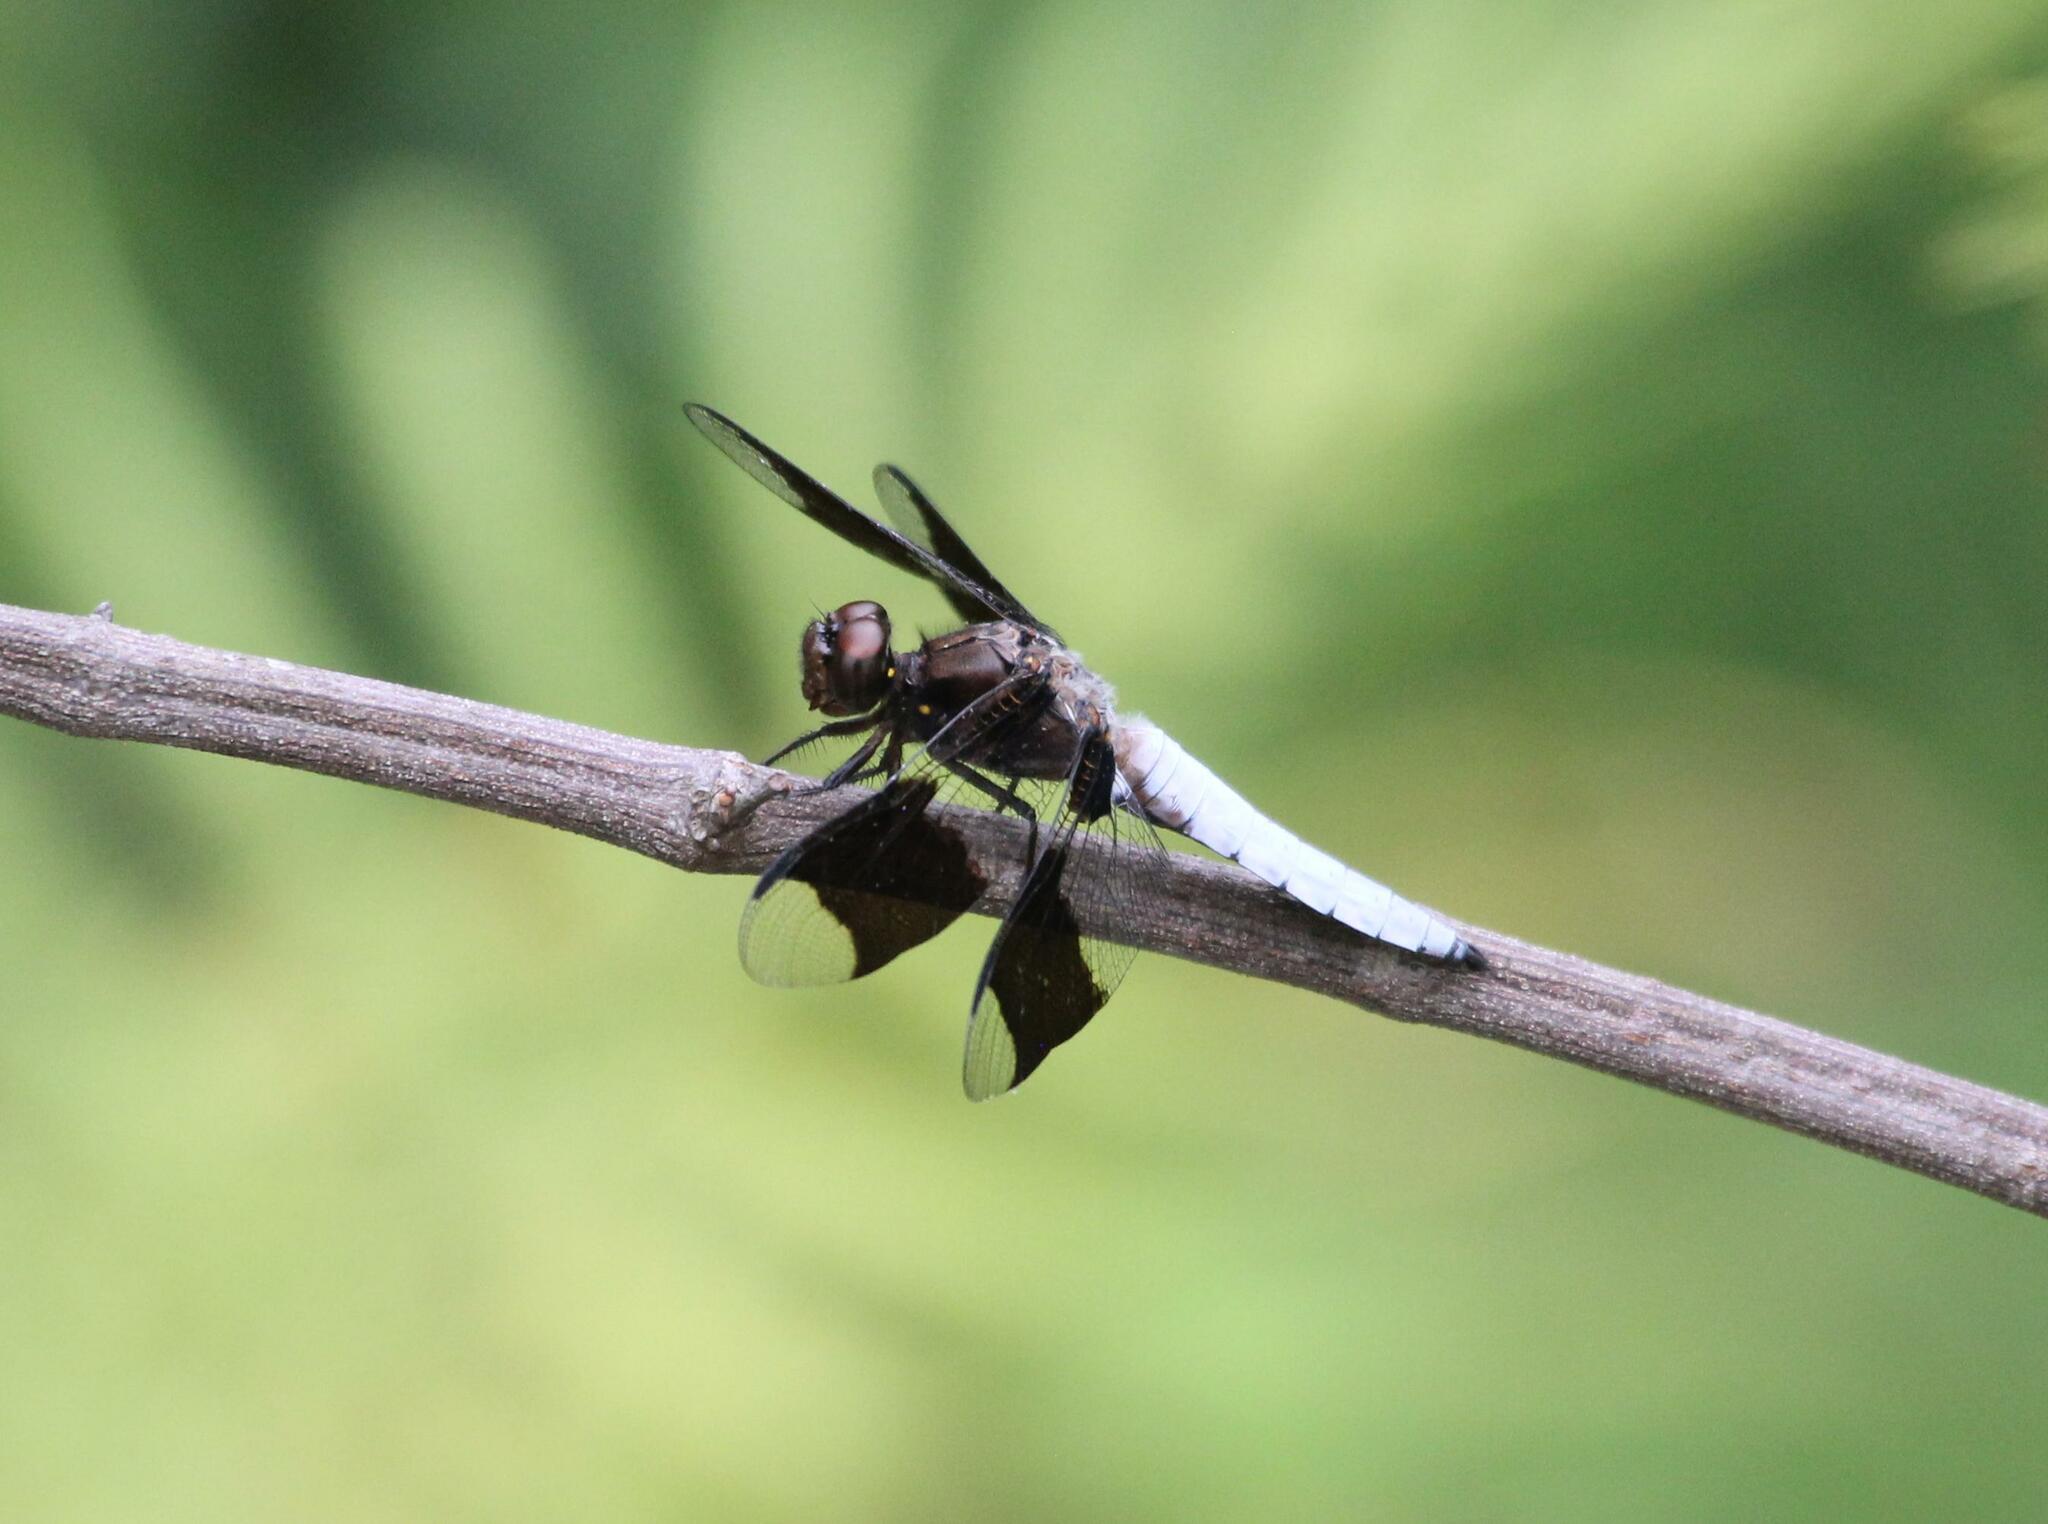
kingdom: Animalia
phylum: Arthropoda
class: Insecta
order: Odonata
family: Libellulidae
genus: Plathemis
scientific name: Plathemis lydia
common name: Common whitetail
